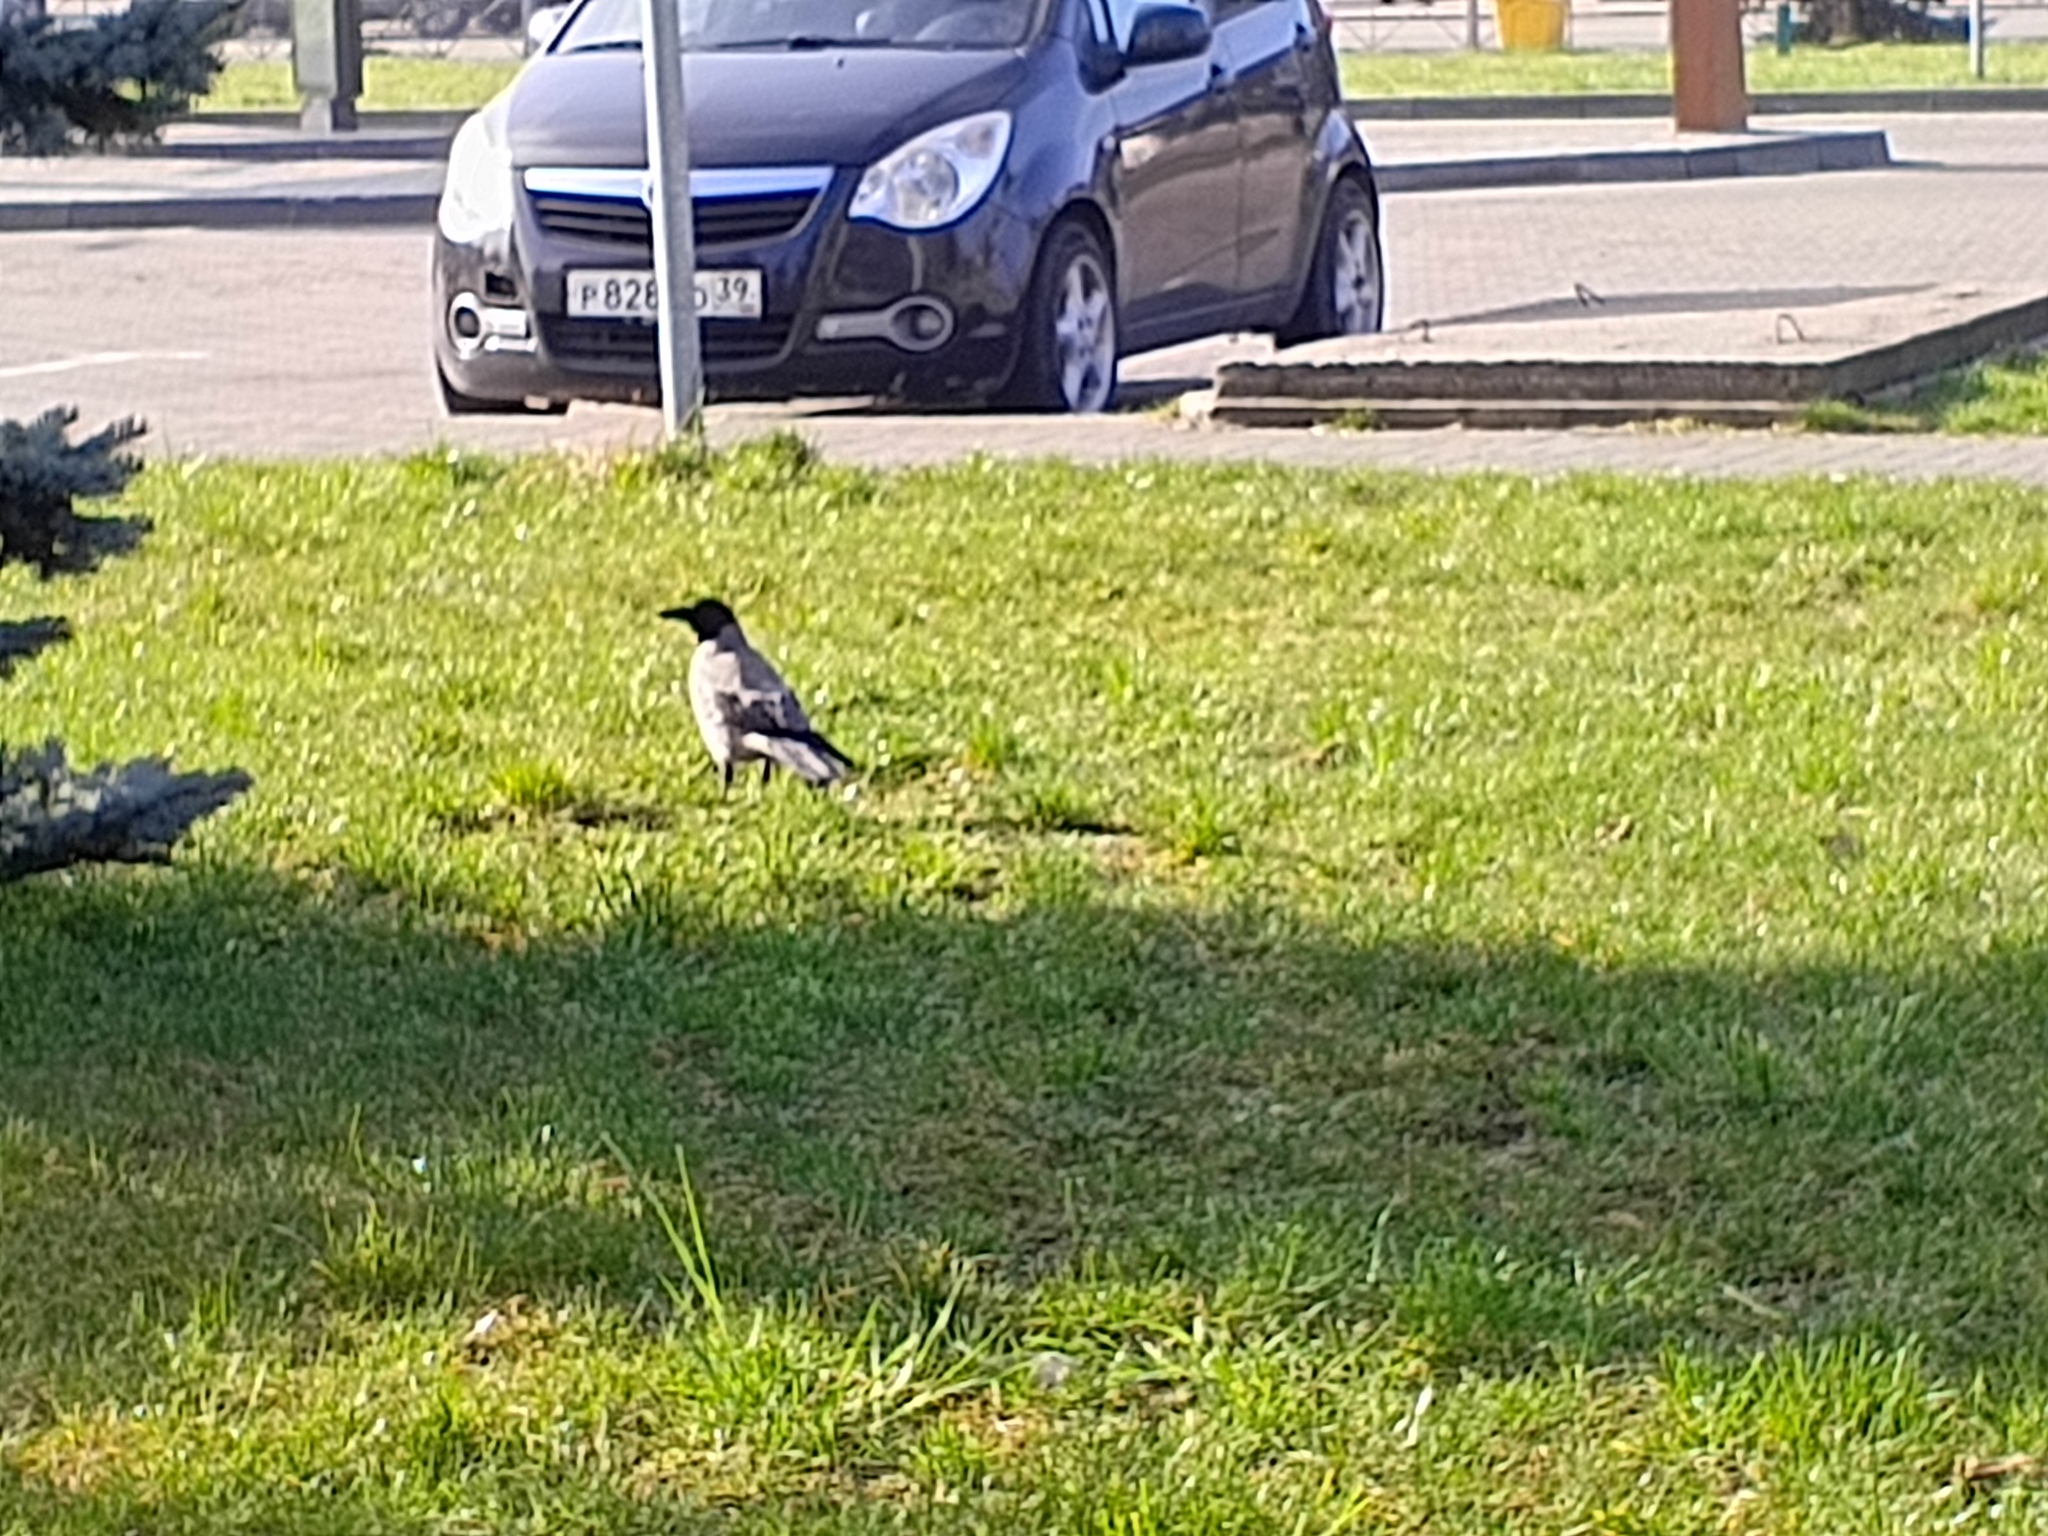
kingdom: Animalia
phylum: Chordata
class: Aves
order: Passeriformes
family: Corvidae
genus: Corvus
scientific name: Corvus cornix
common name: Hooded crow
